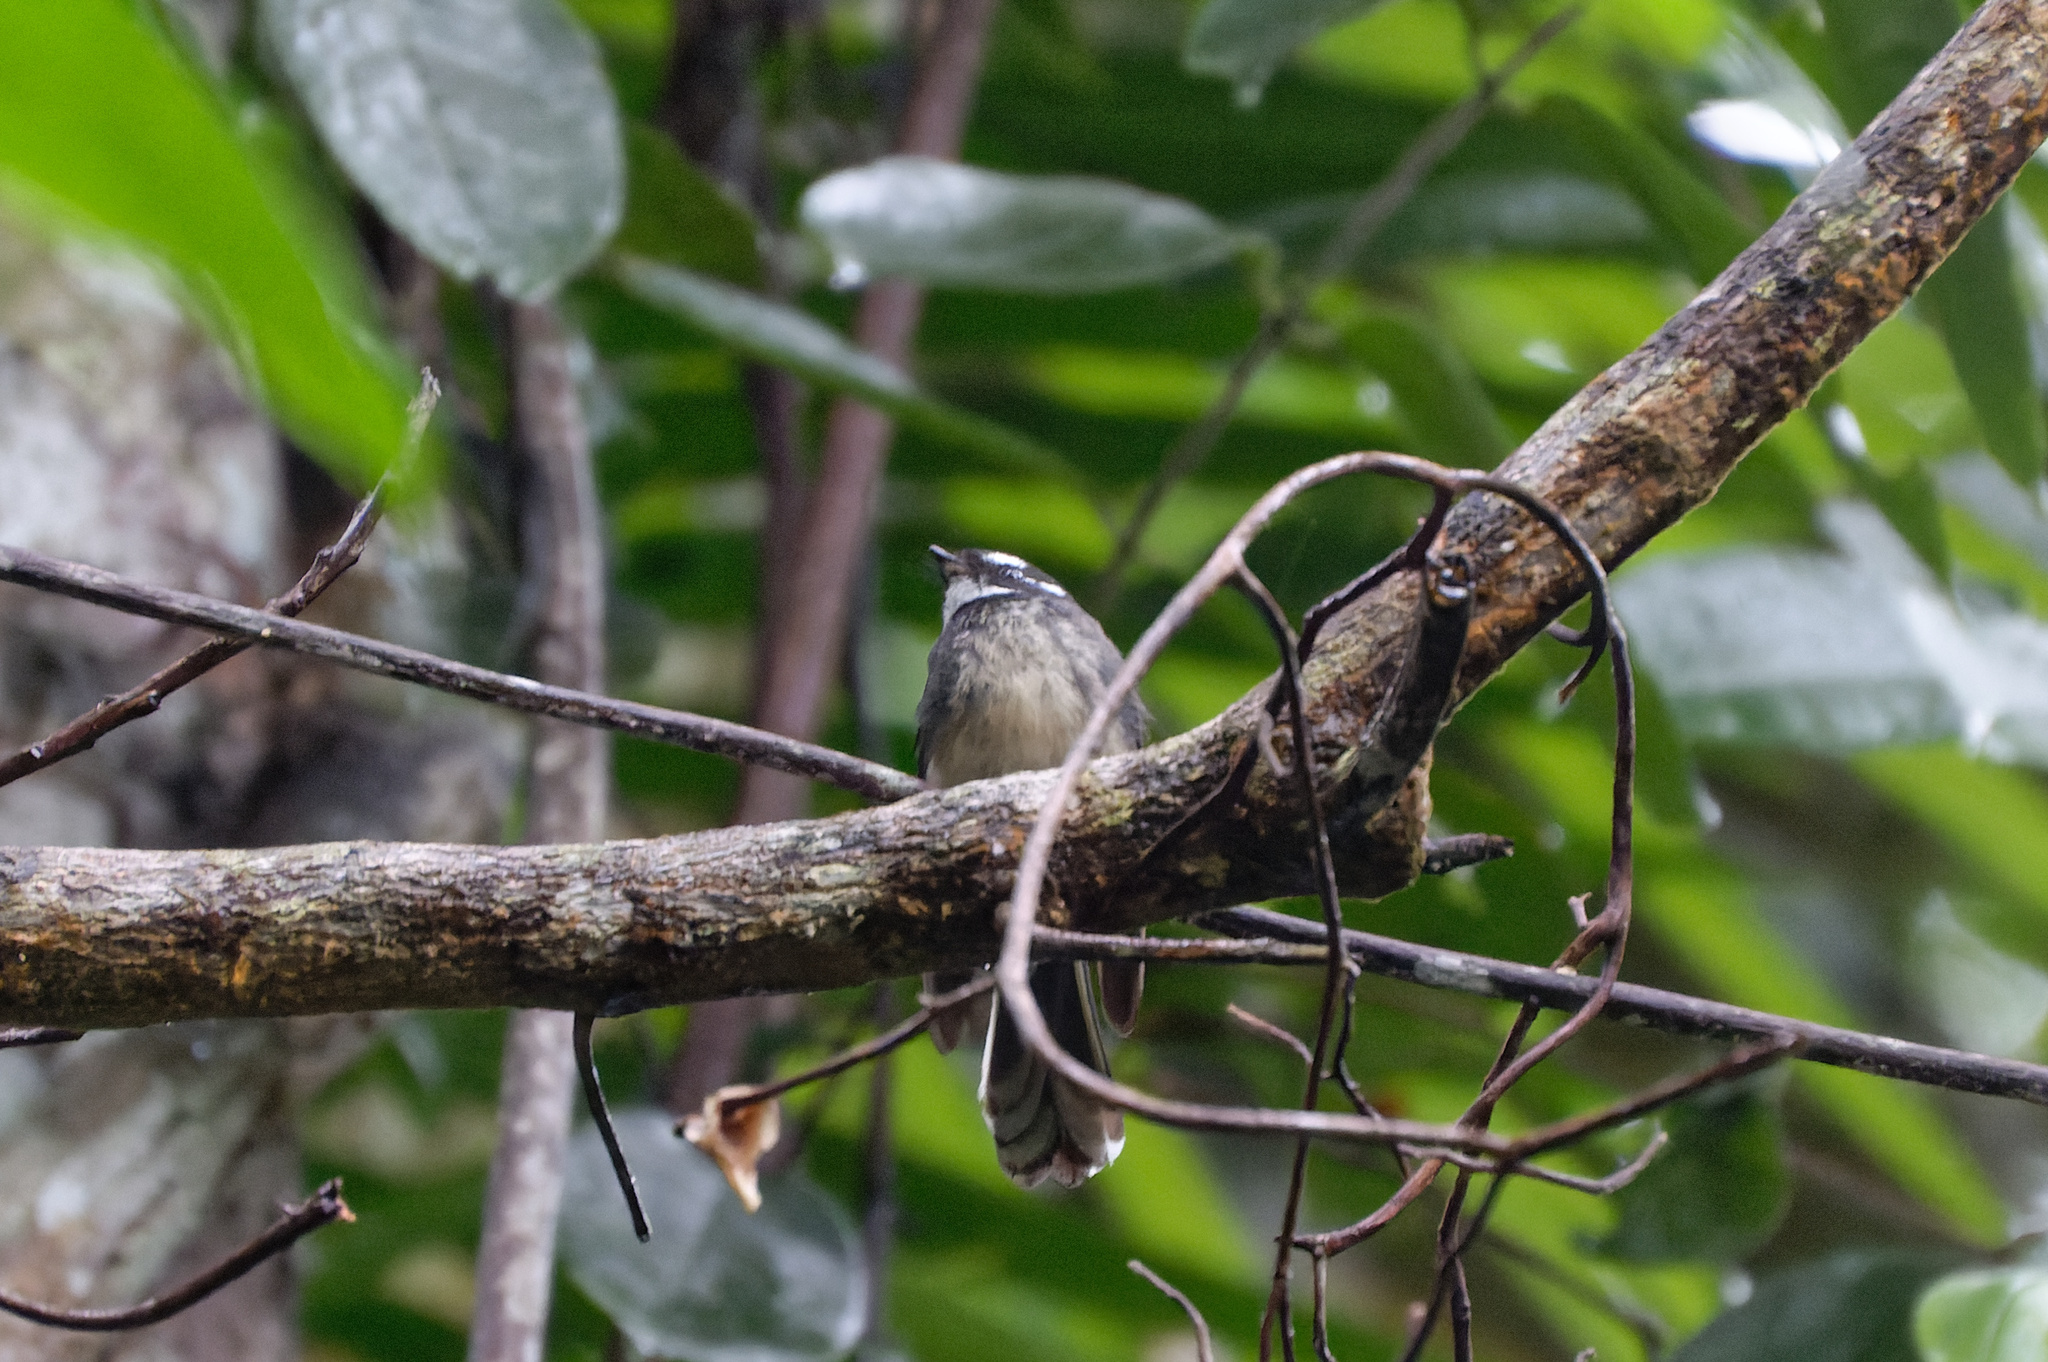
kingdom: Animalia
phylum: Chordata
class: Aves
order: Passeriformes
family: Rhipiduridae
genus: Rhipidura
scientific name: Rhipidura albiscapa
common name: Grey fantail
